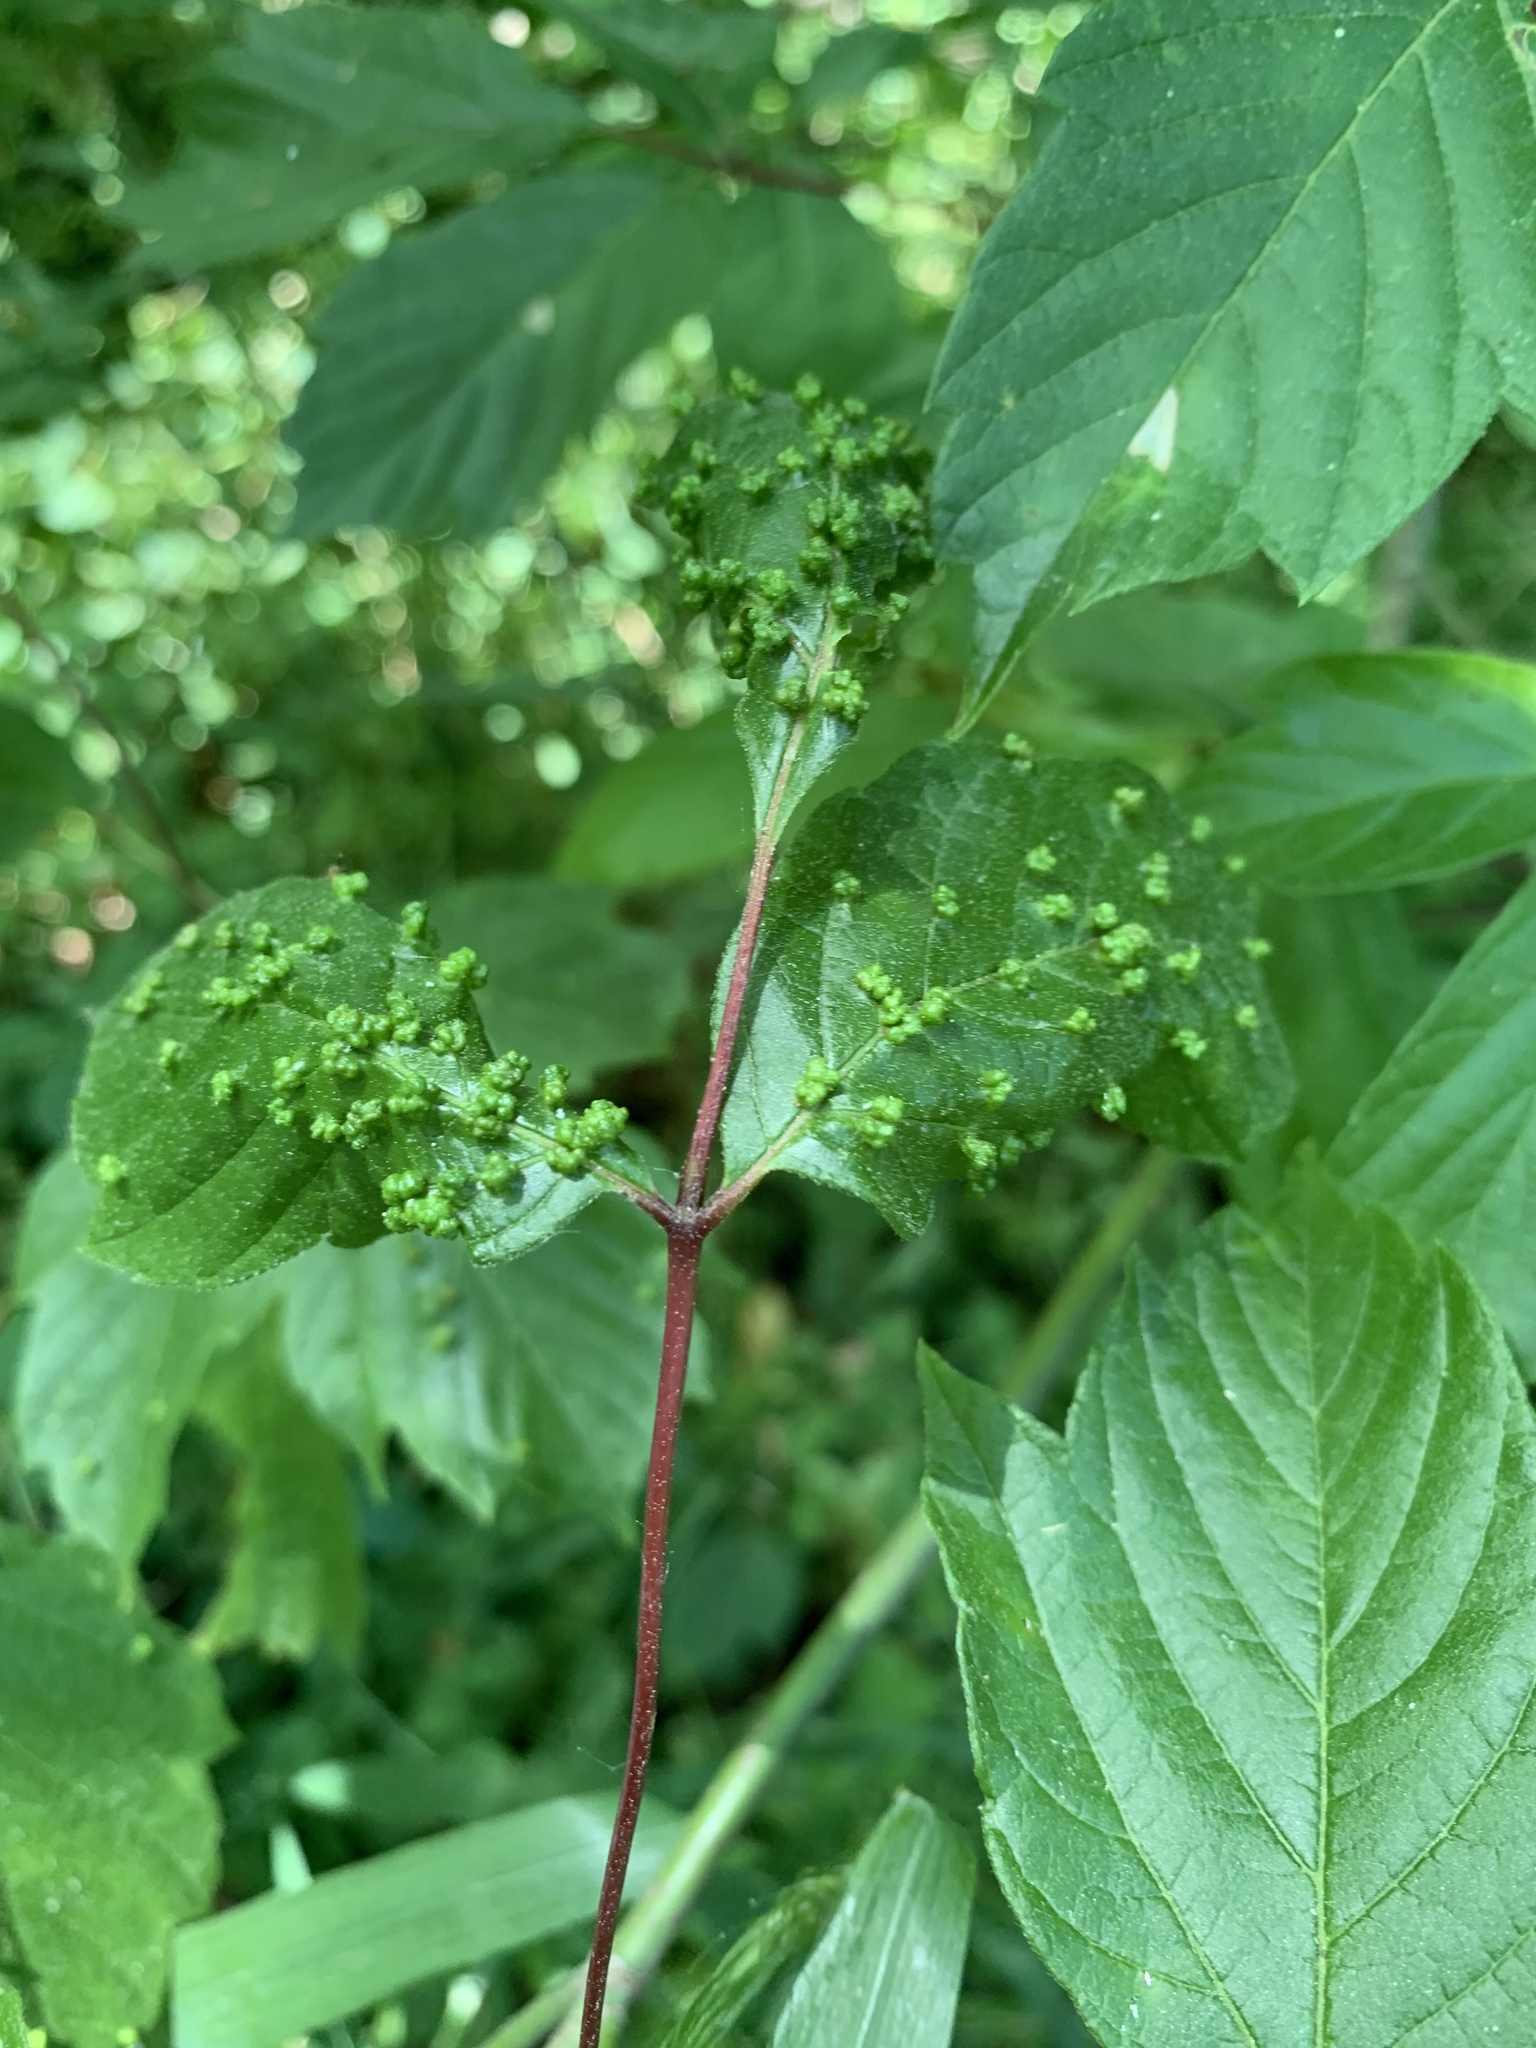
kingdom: Animalia
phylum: Arthropoda
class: Arachnida
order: Trombidiformes
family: Eriophyidae
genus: Aceria
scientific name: Aceria
